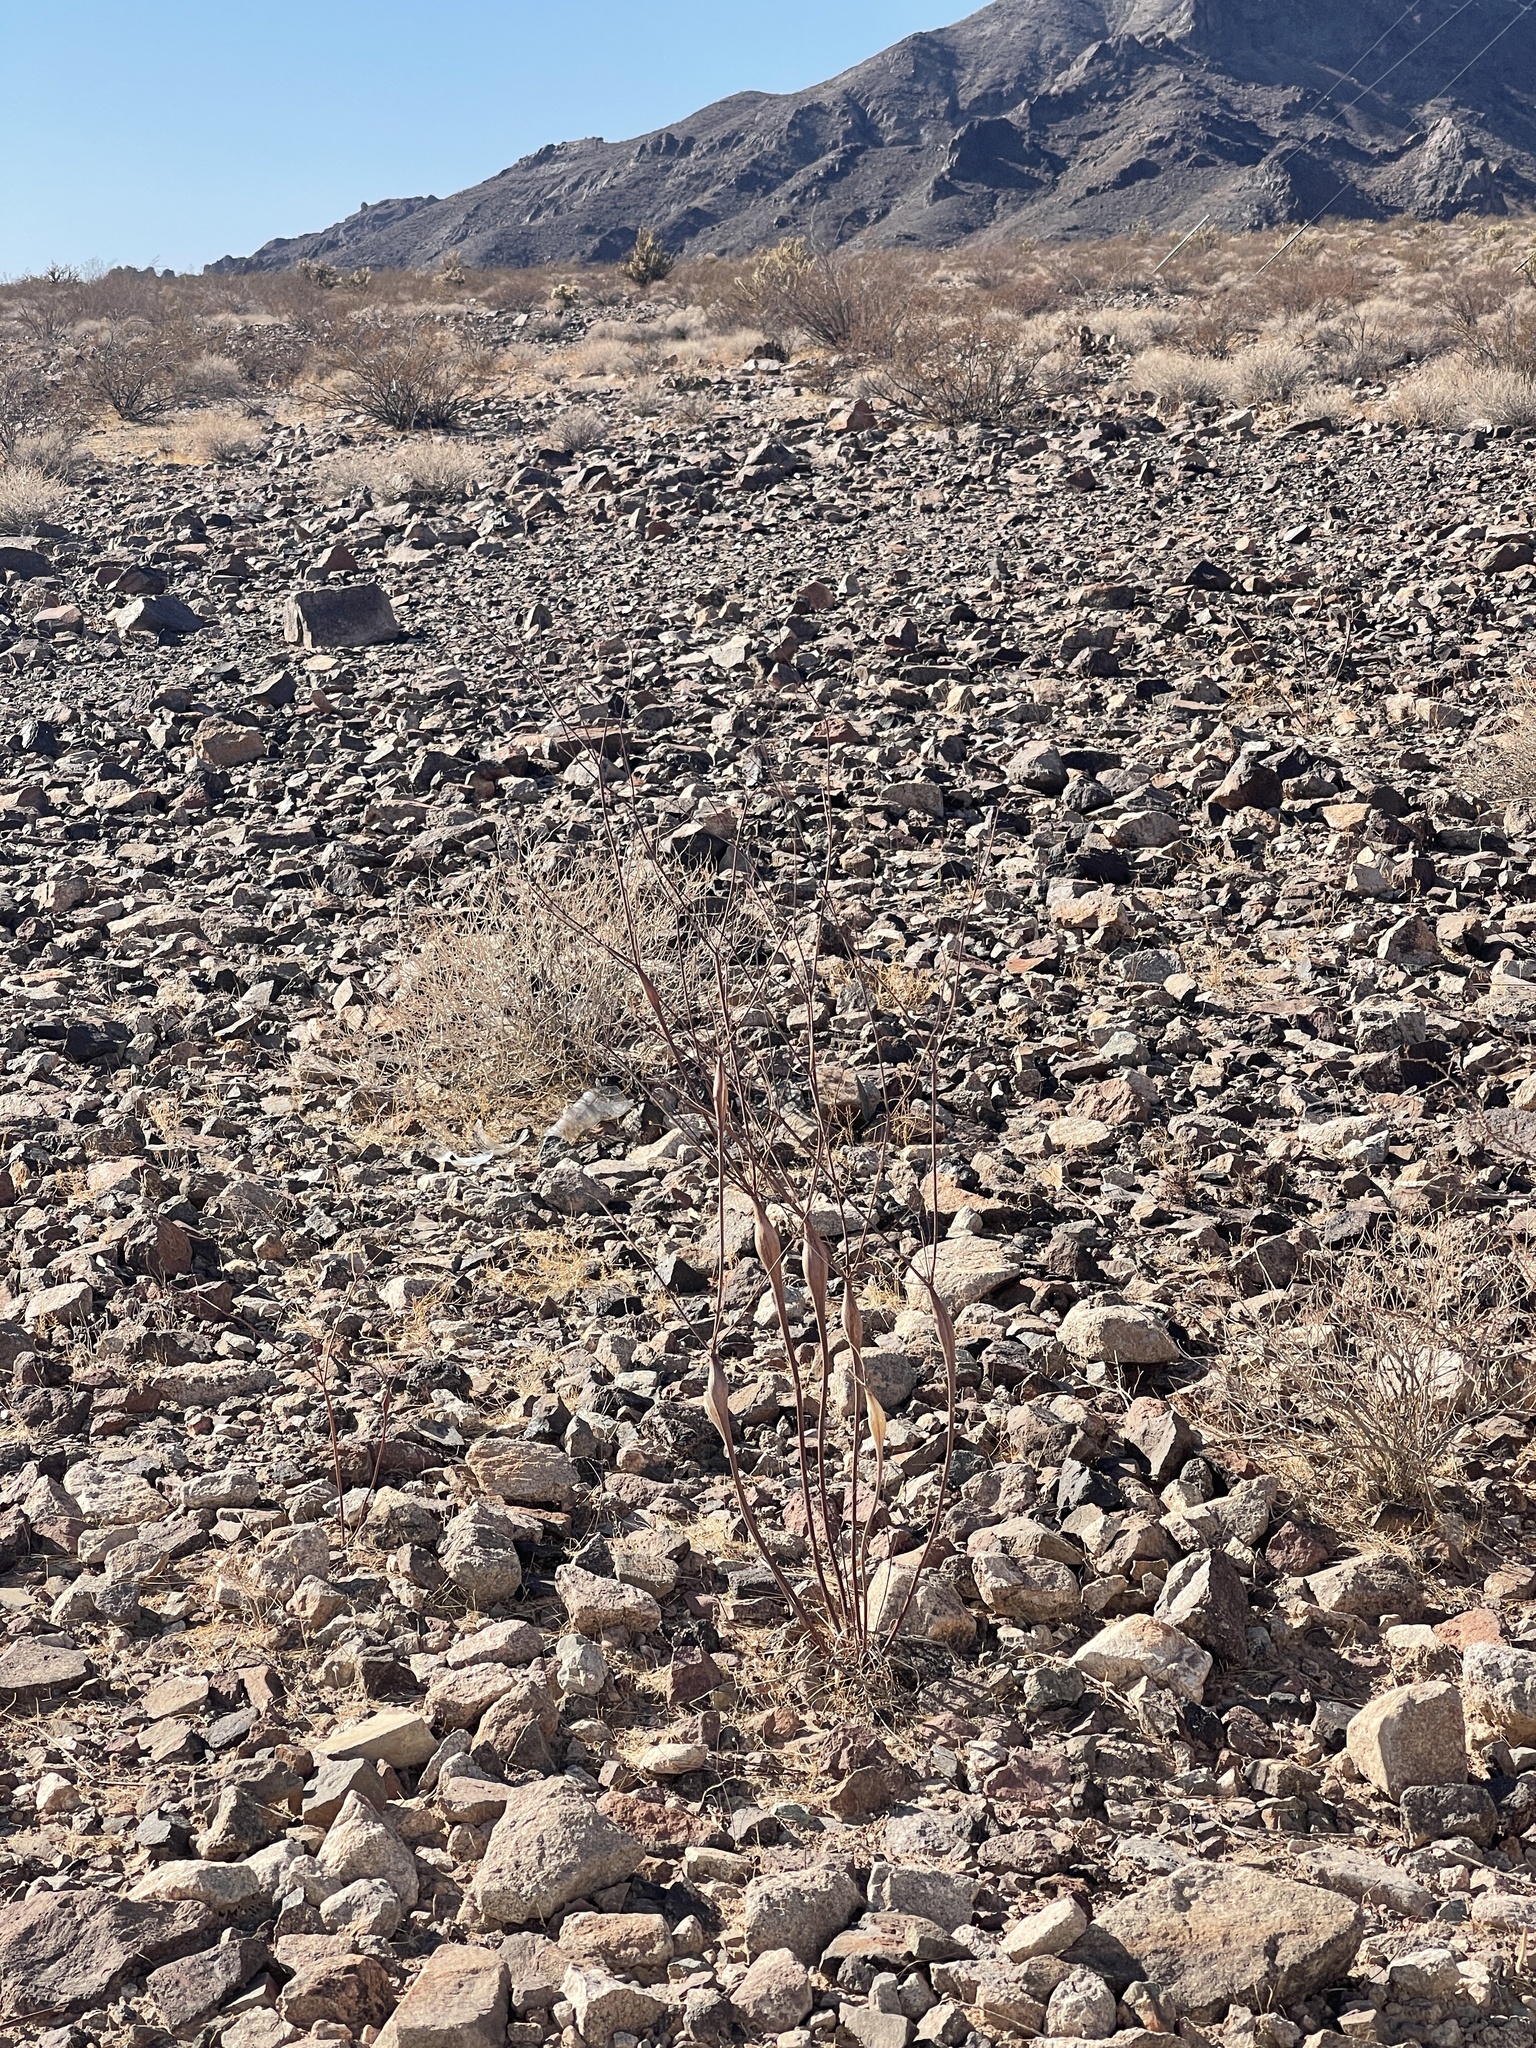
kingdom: Plantae
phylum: Tracheophyta
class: Magnoliopsida
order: Caryophyllales
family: Polygonaceae
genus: Eriogonum
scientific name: Eriogonum inflatum
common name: Desert trumpet
